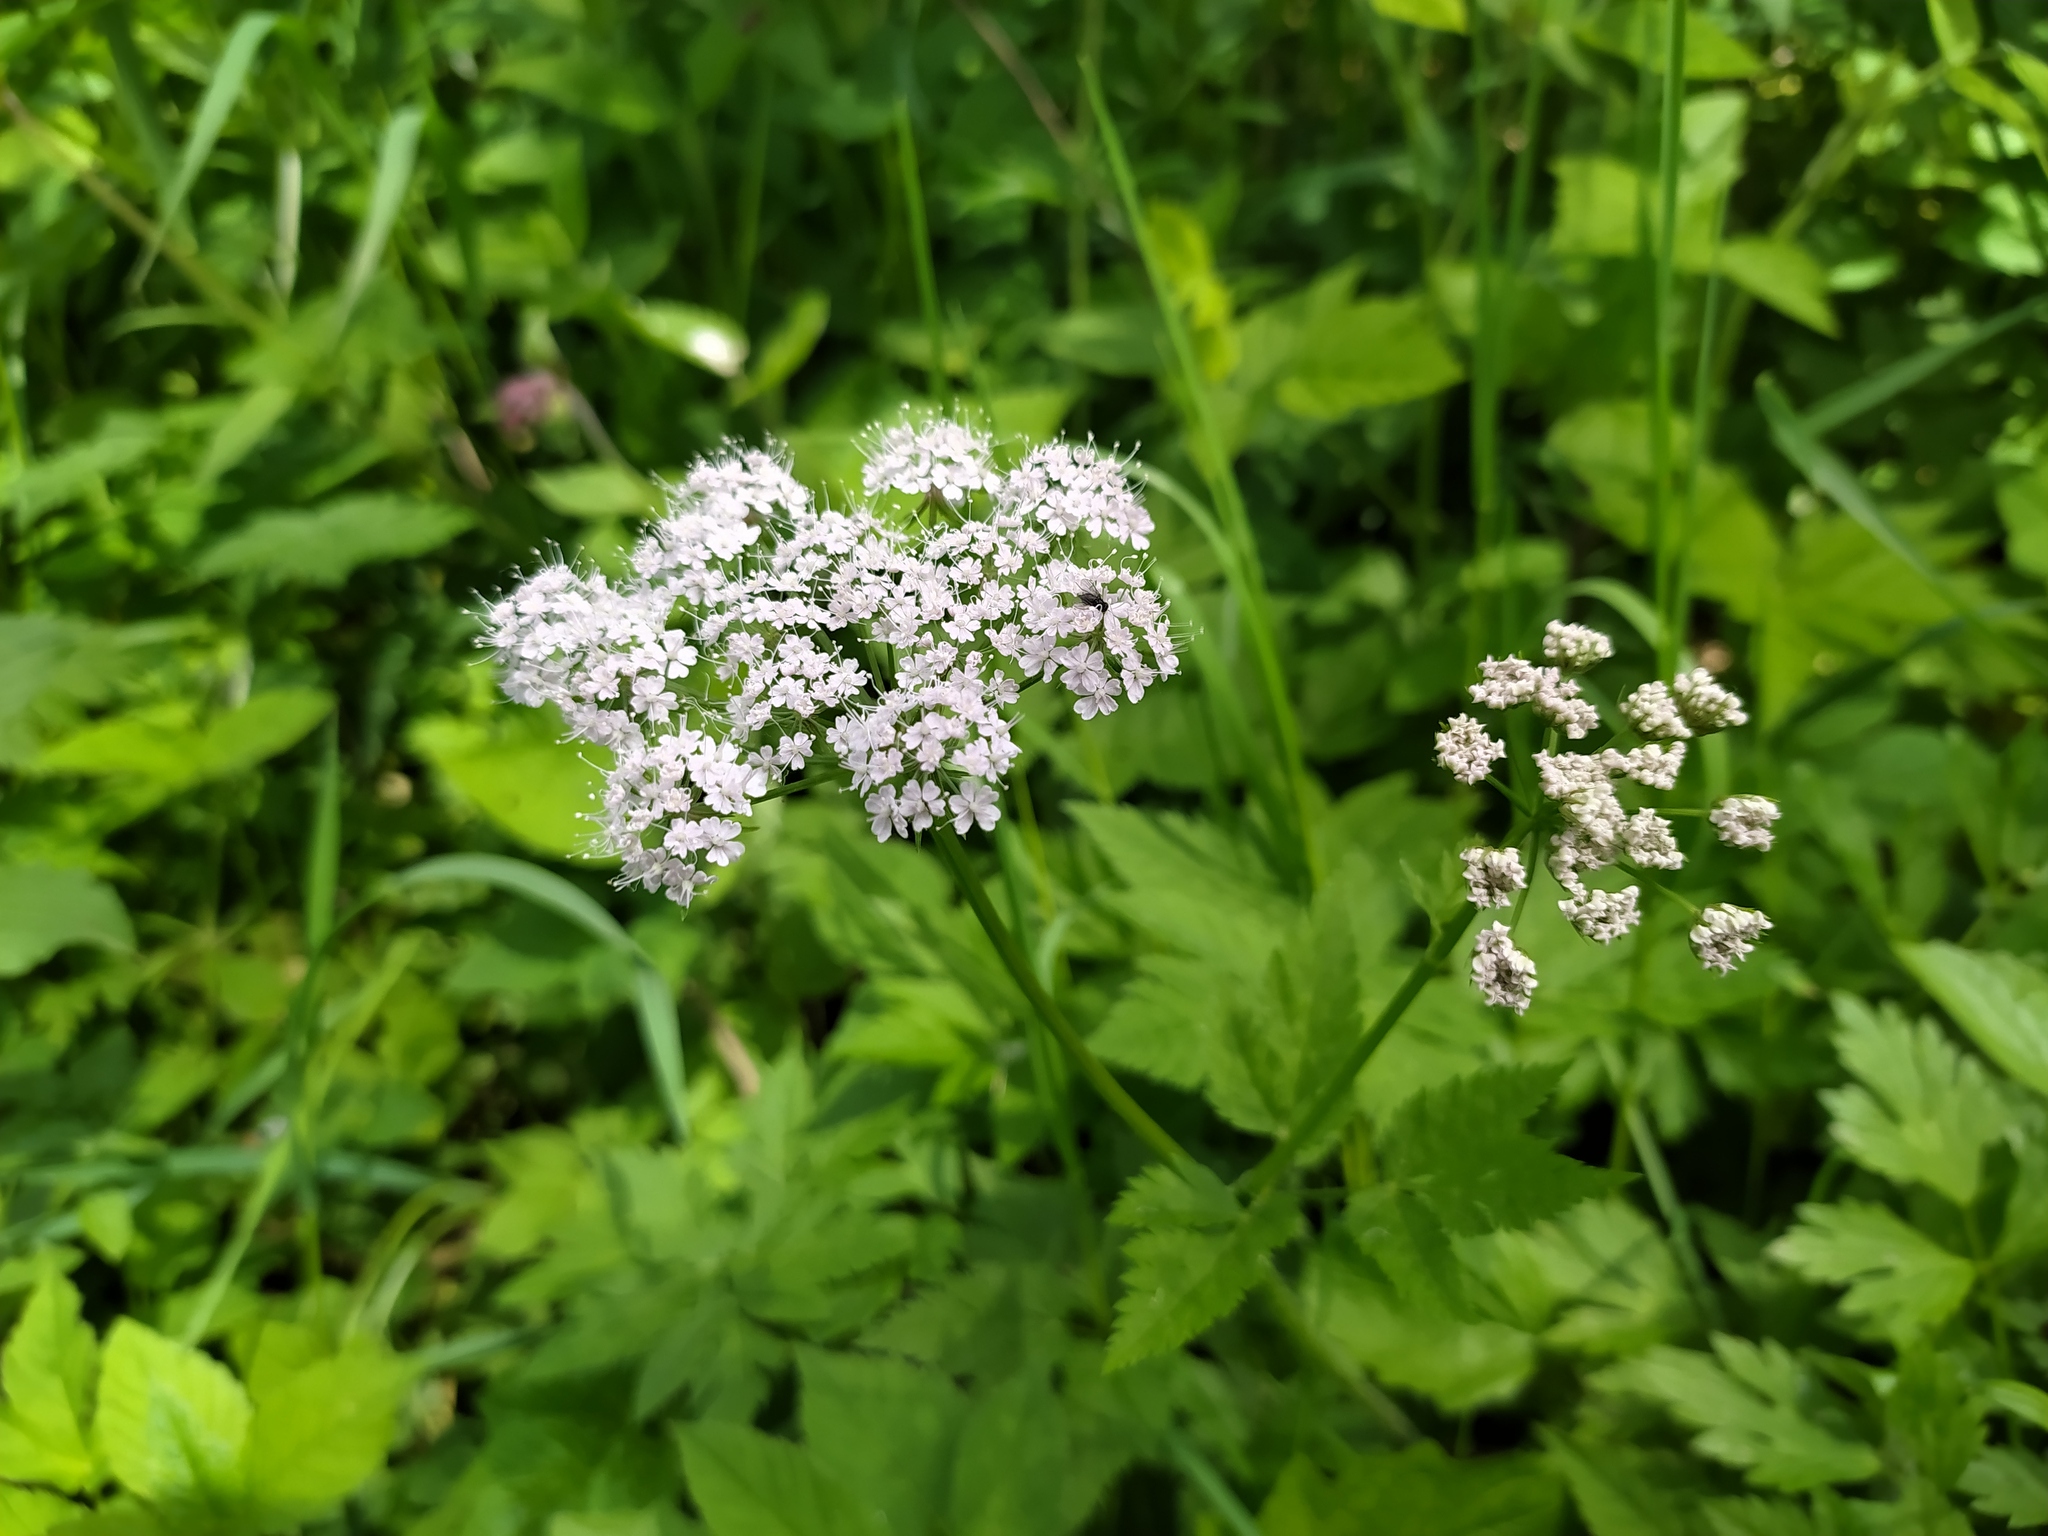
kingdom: Plantae
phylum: Tracheophyta
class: Magnoliopsida
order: Apiales
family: Apiaceae
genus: Chaerophyllum
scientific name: Chaerophyllum hirsutum
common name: Hairy chervil
